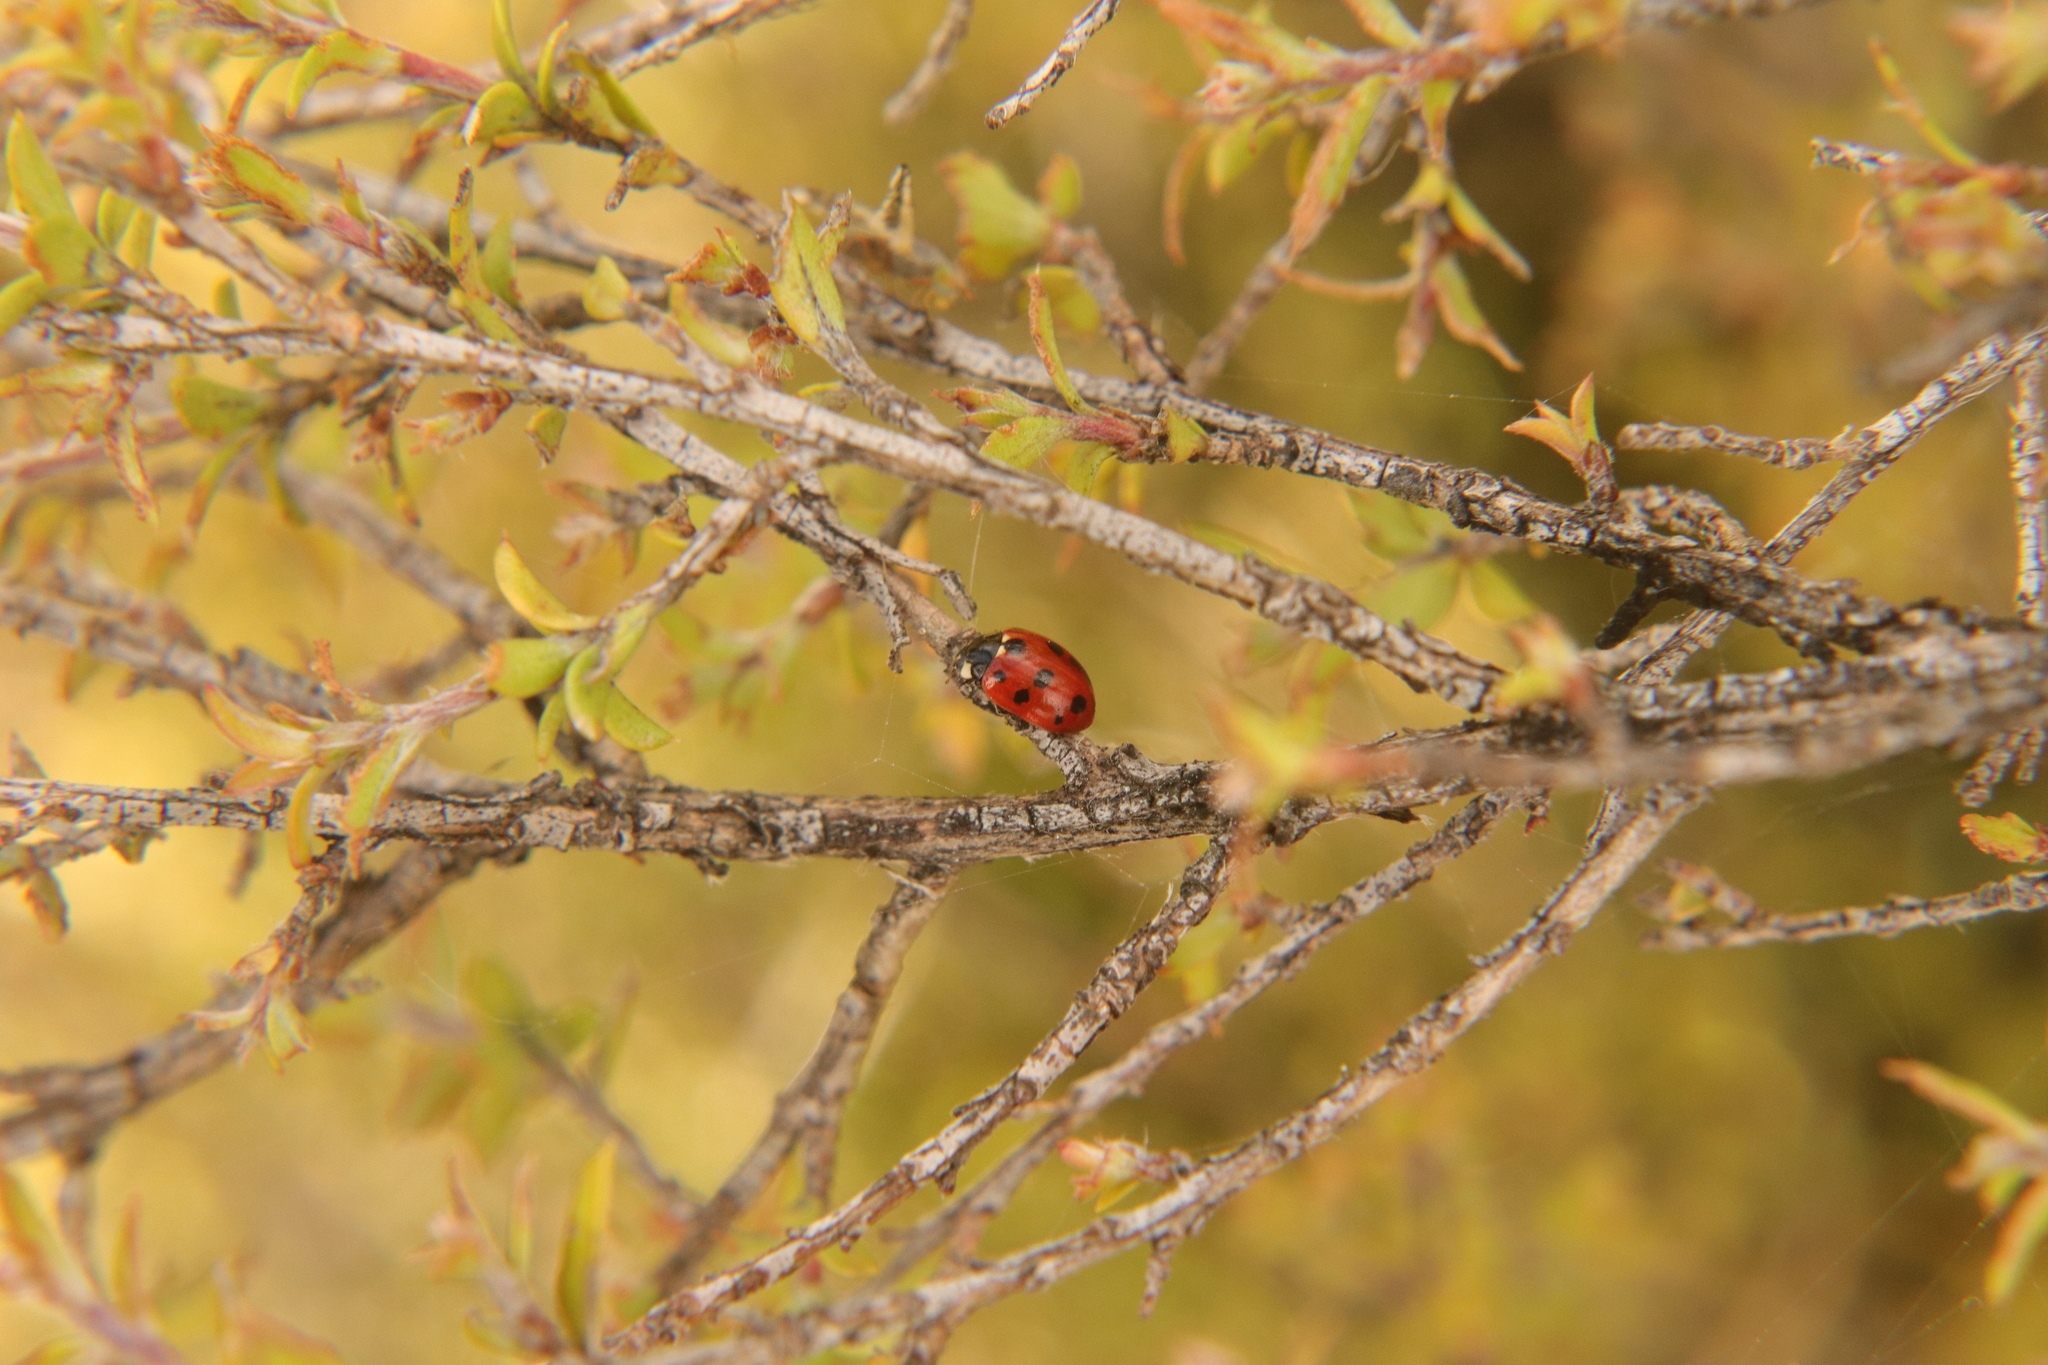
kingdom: Animalia
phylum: Arthropoda
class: Insecta
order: Coleoptera
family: Coccinellidae
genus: Coccinella
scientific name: Coccinella undecimpunctata
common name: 11-spot ladybird
